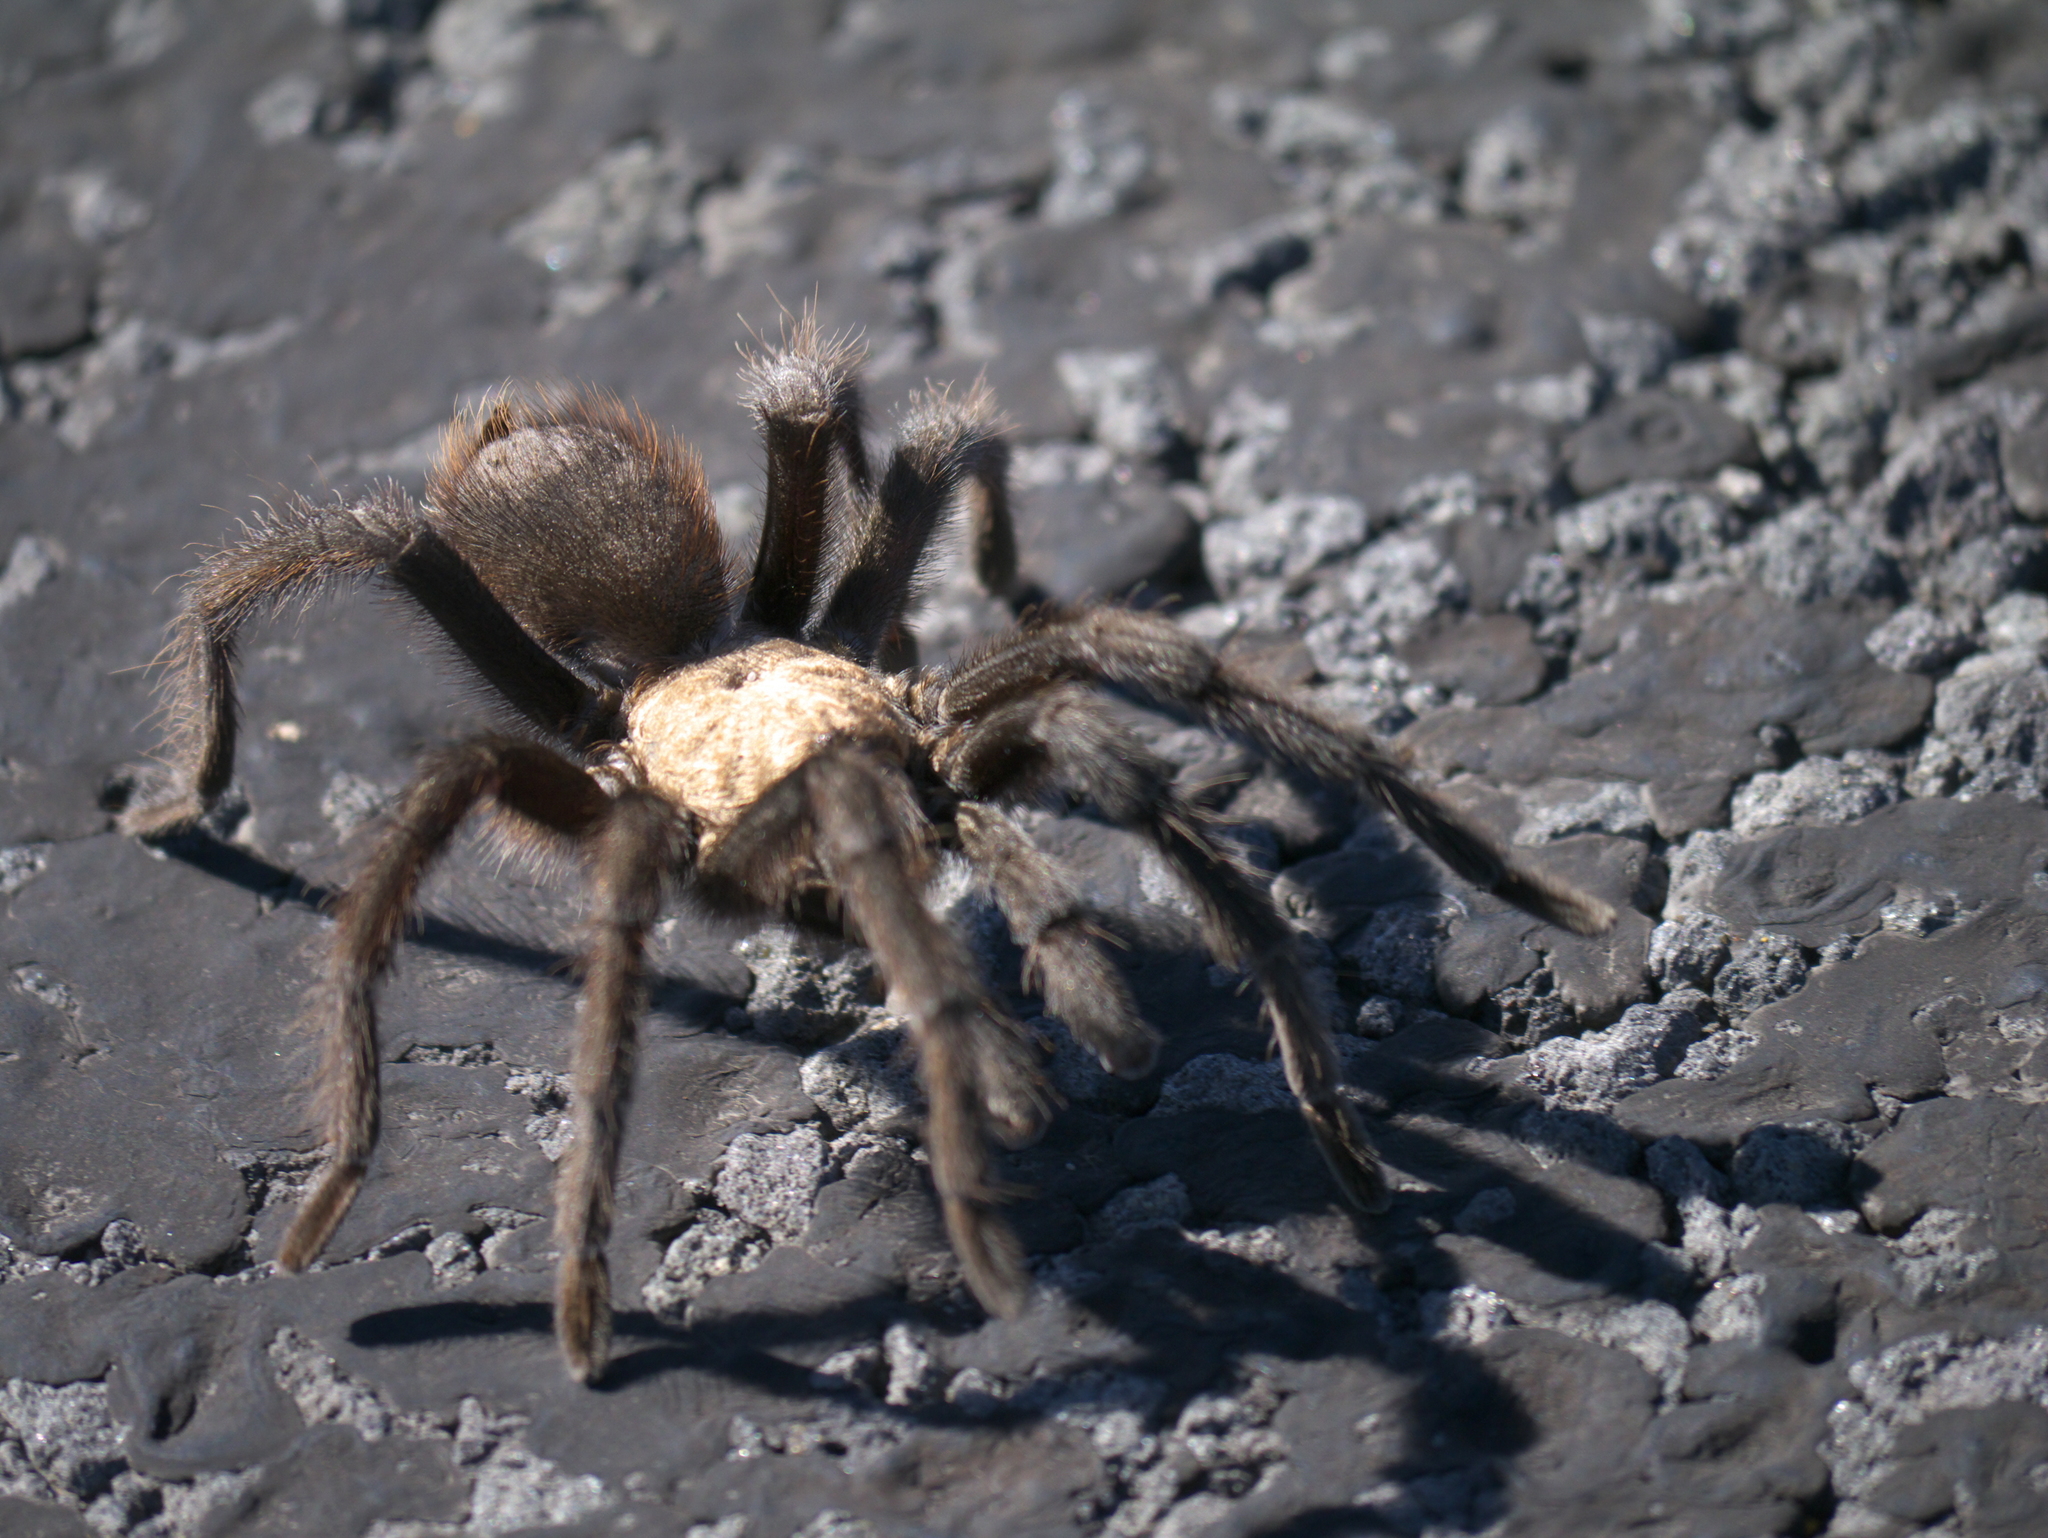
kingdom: Animalia
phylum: Arthropoda
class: Arachnida
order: Araneae
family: Theraphosidae
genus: Aphonopelma
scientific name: Aphonopelma hentzi
